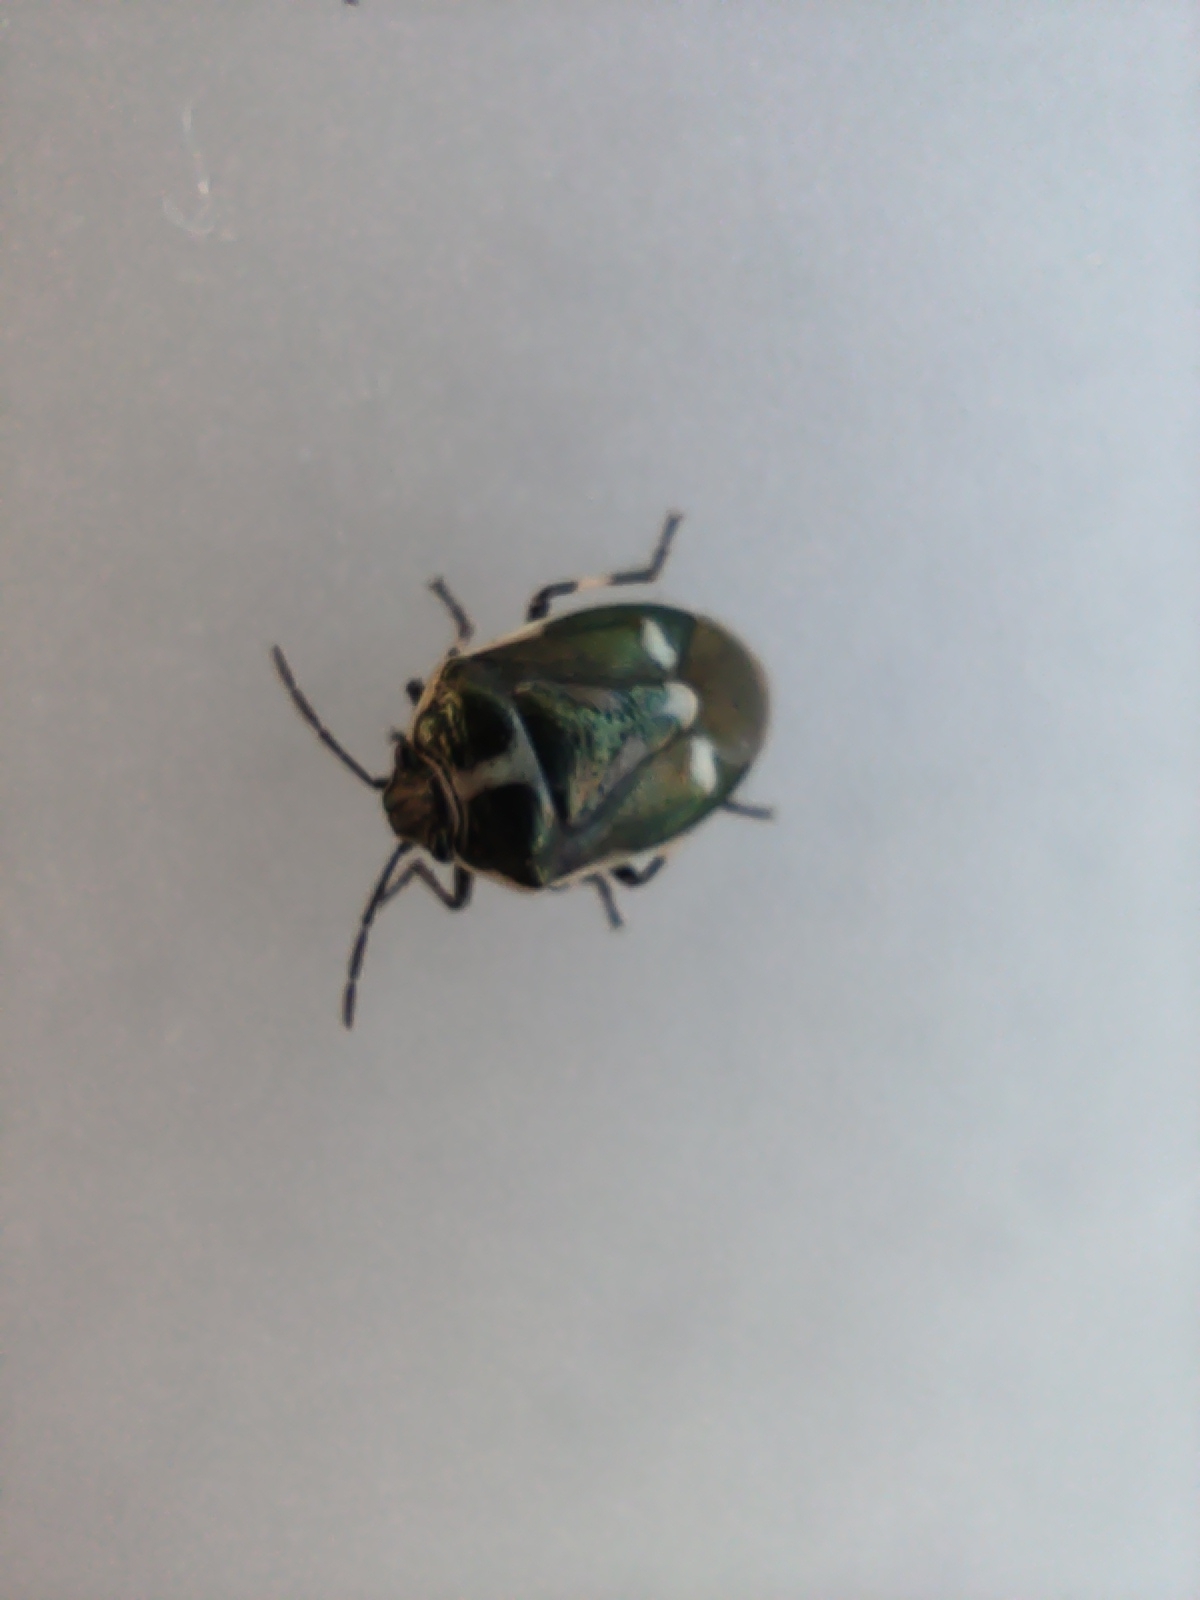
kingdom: Animalia
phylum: Arthropoda
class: Insecta
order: Hemiptera
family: Pentatomidae
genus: Eurydema
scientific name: Eurydema oleracea
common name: Cabbage bug
